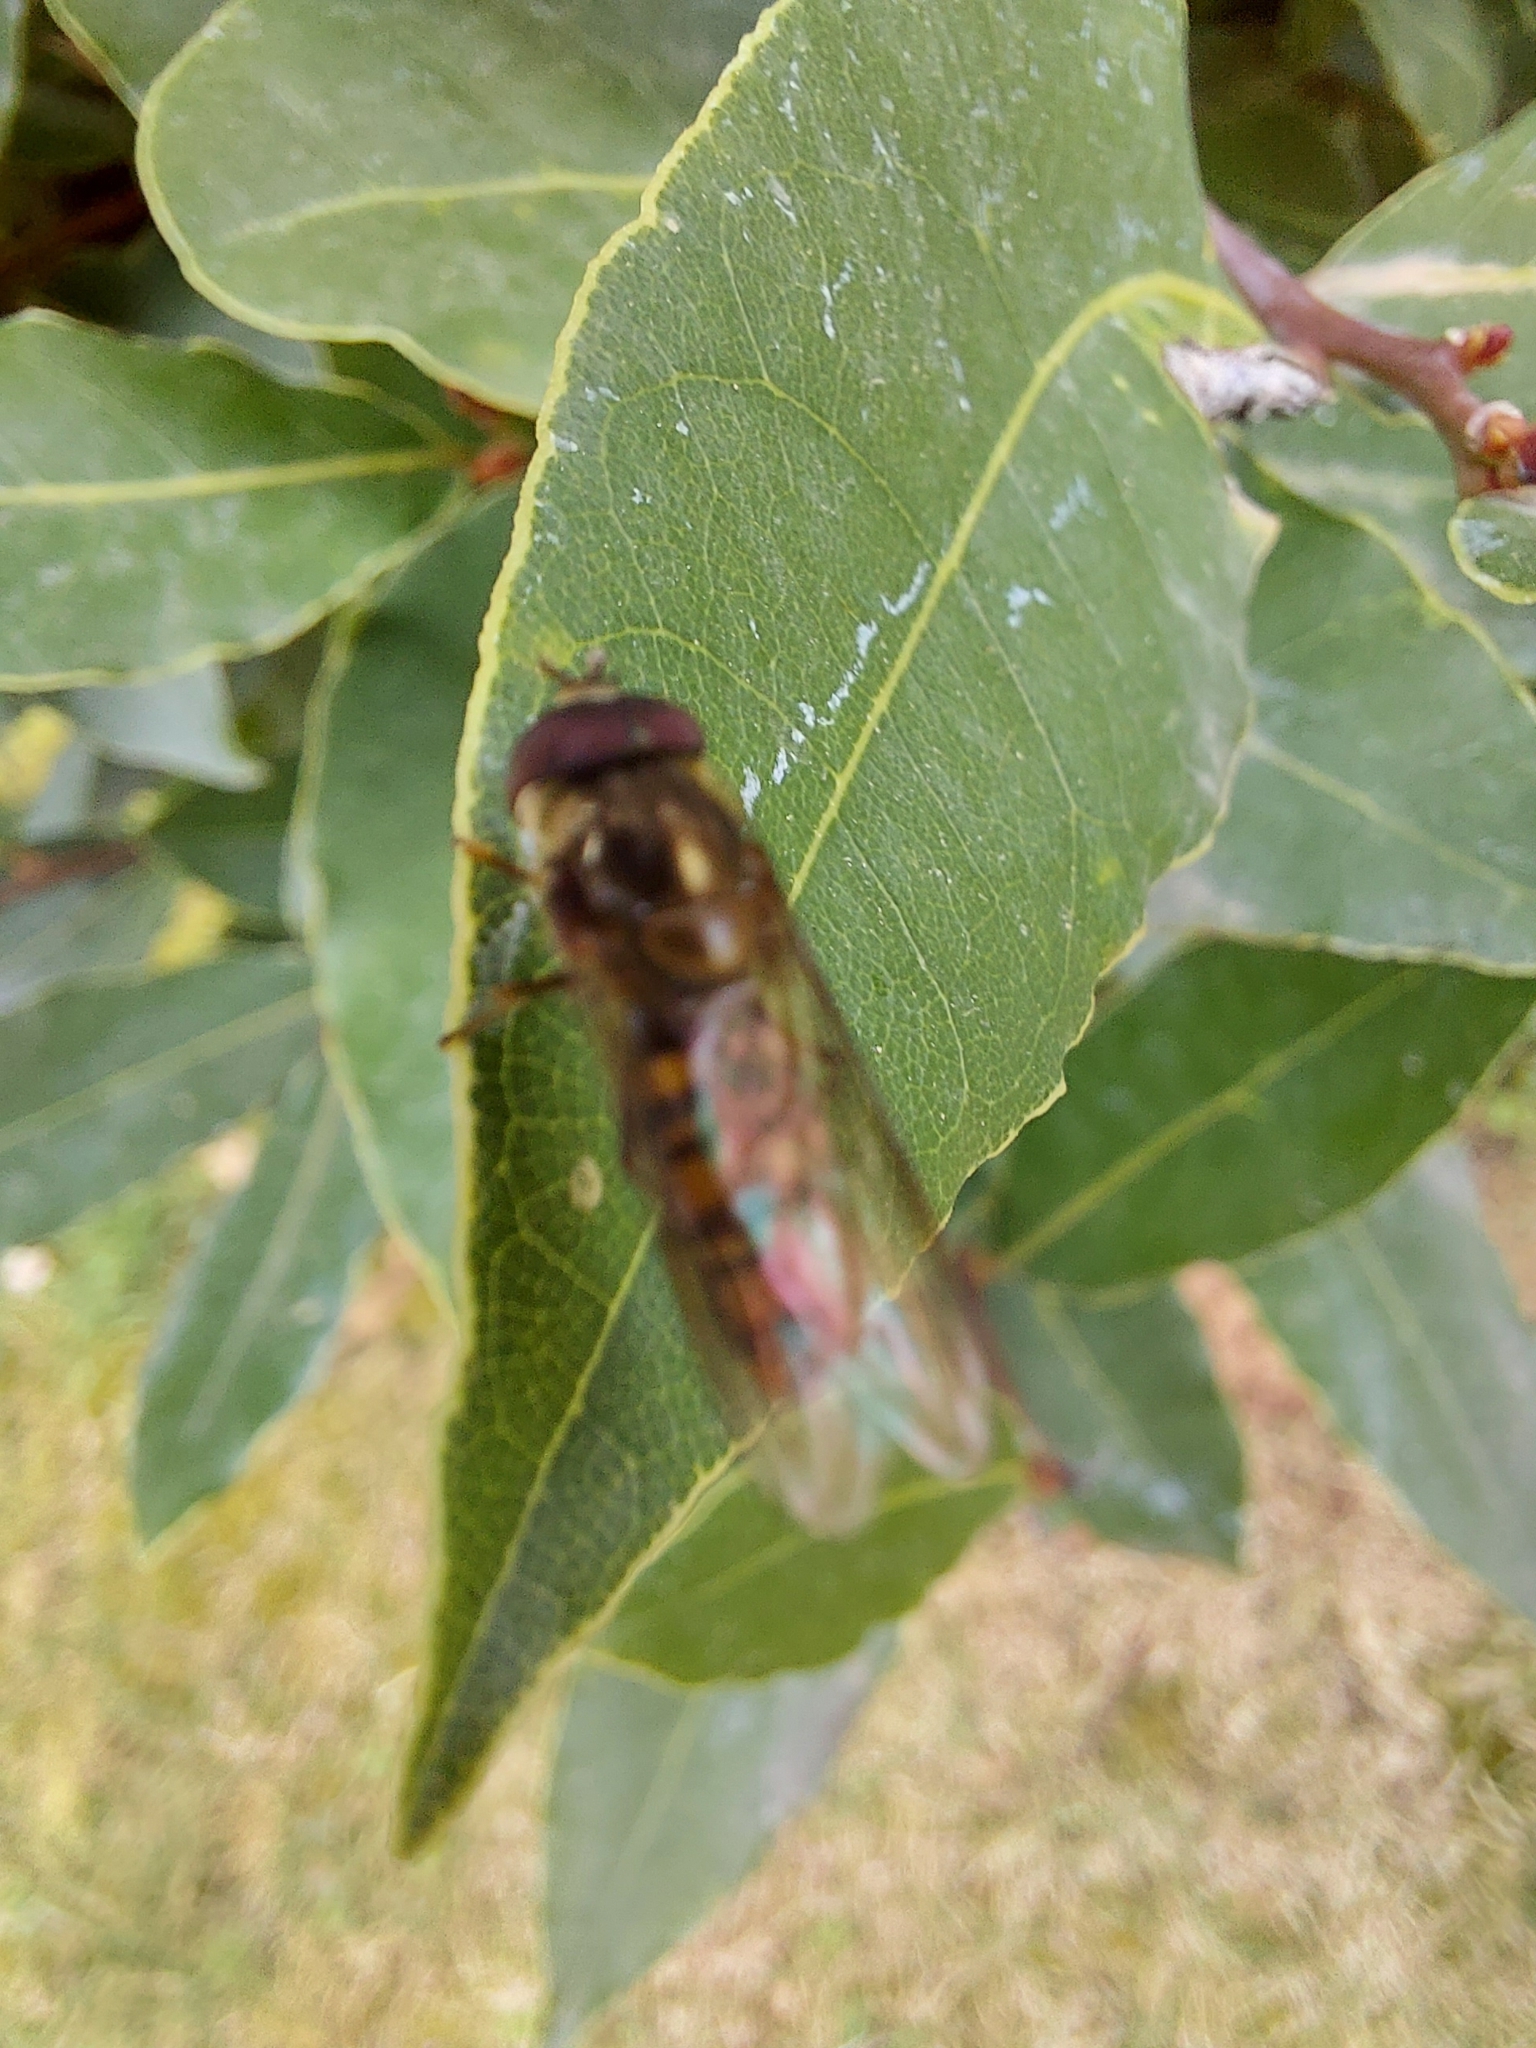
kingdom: Animalia
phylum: Arthropoda
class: Insecta
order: Diptera
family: Syrphidae
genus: Episyrphus
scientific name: Episyrphus balteatus
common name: Marmalade hoverfly
